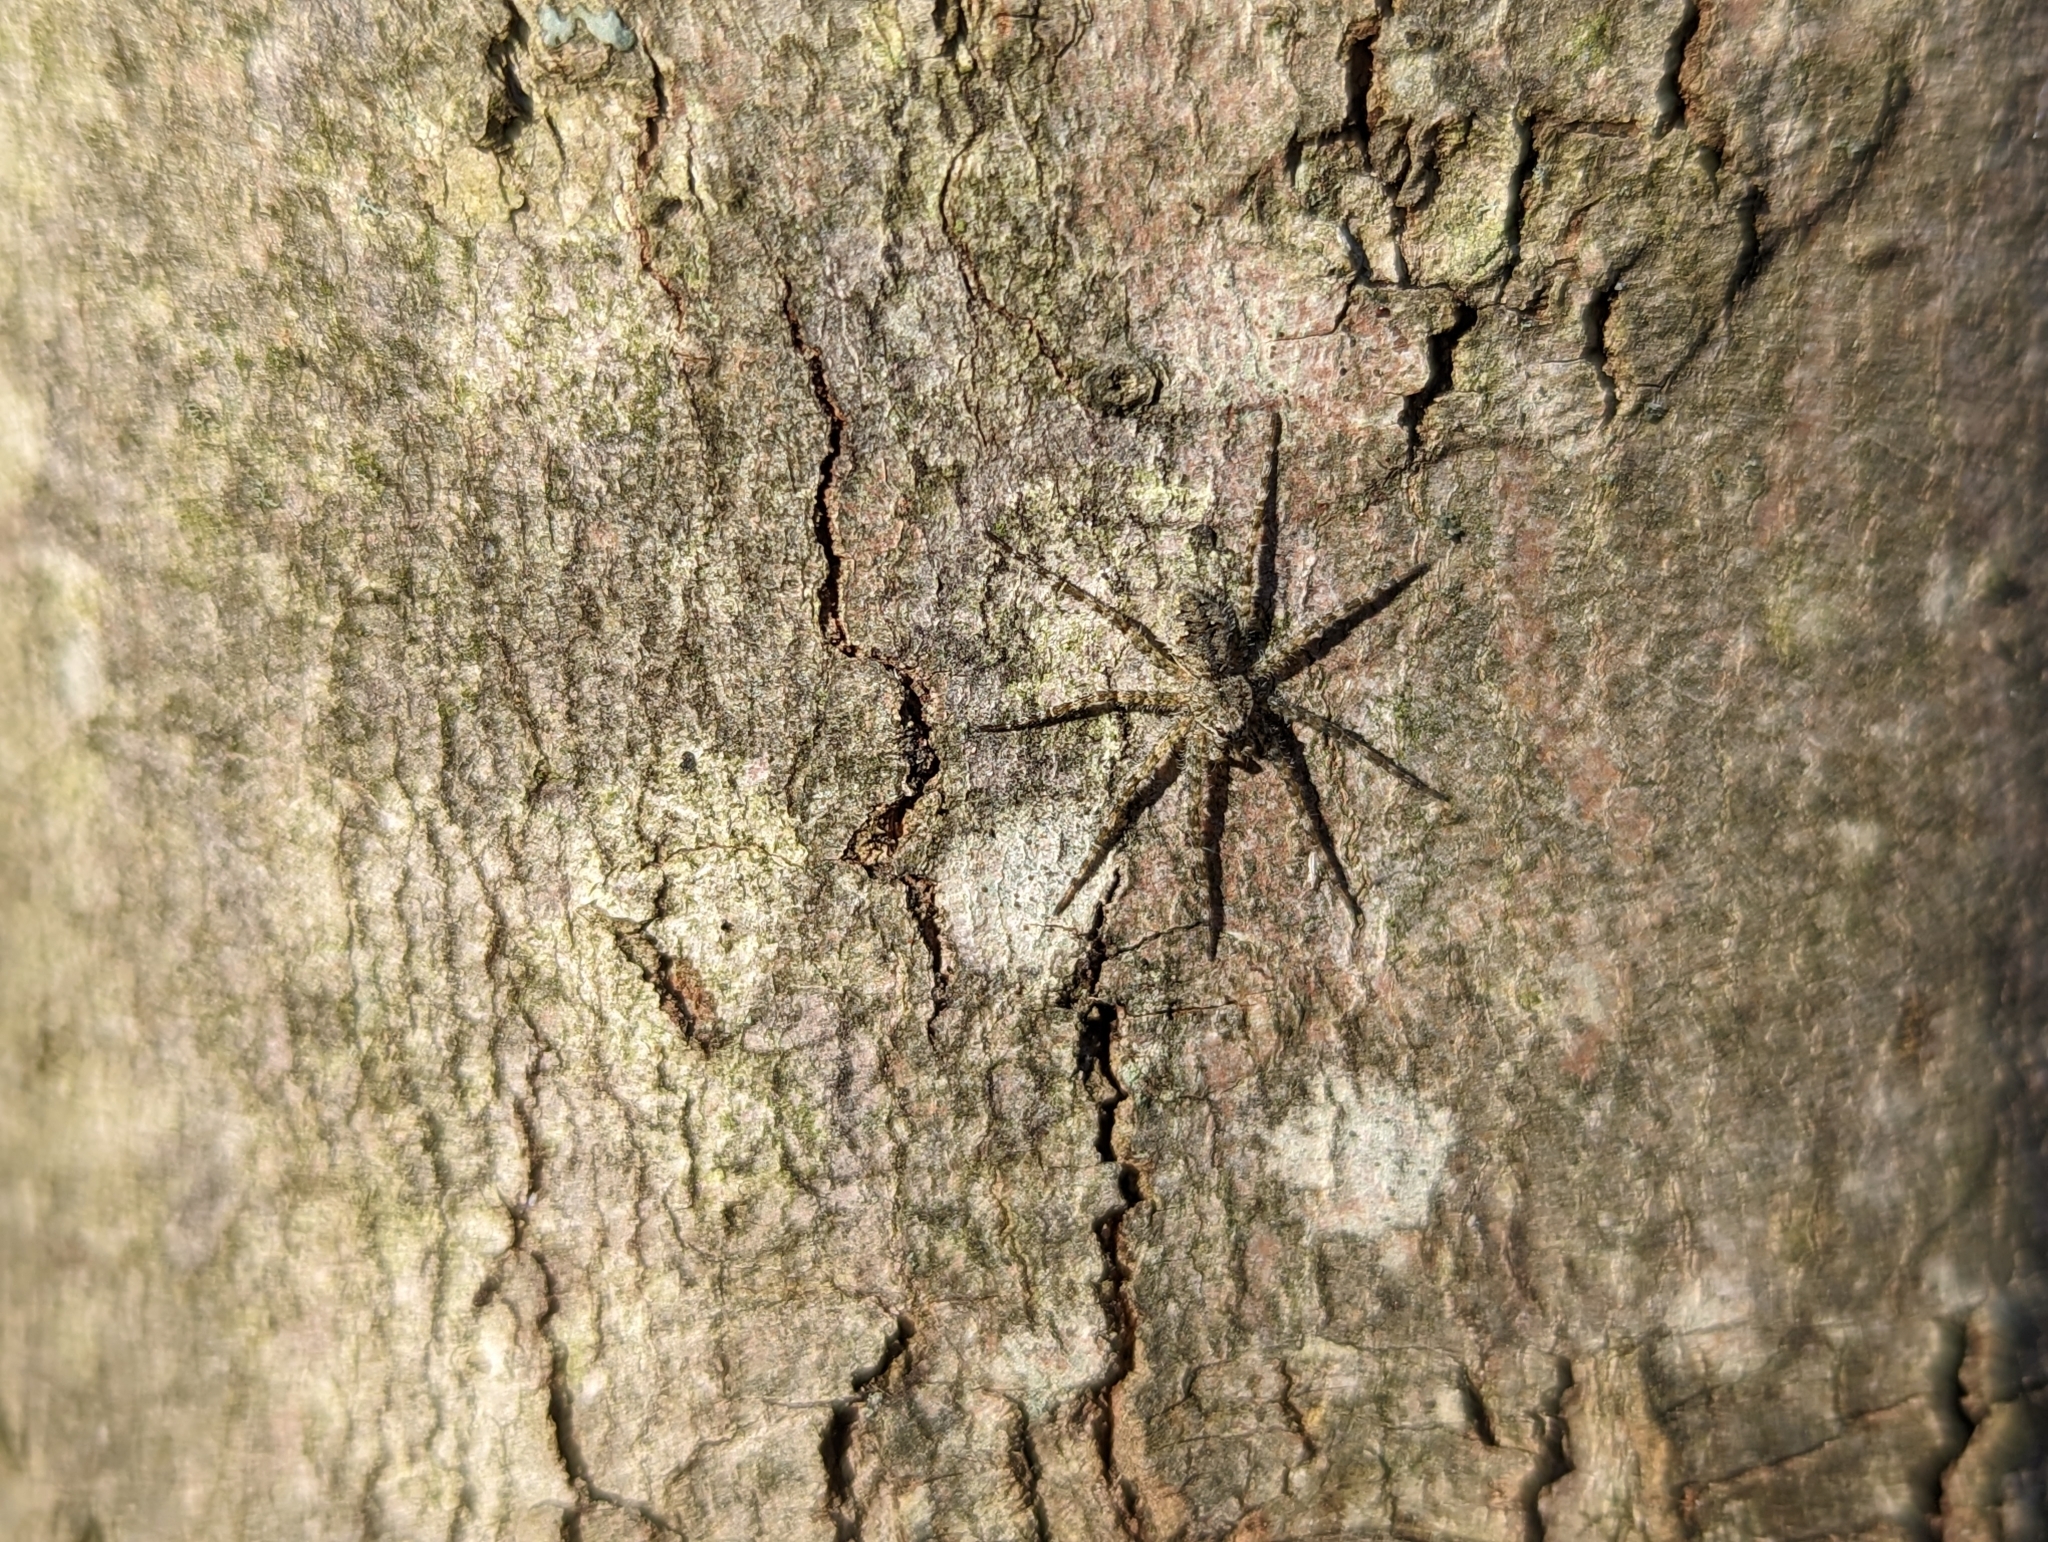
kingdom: Animalia
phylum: Arthropoda
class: Arachnida
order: Araneae
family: Pisauridae
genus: Dolomedes
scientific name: Dolomedes albineus
